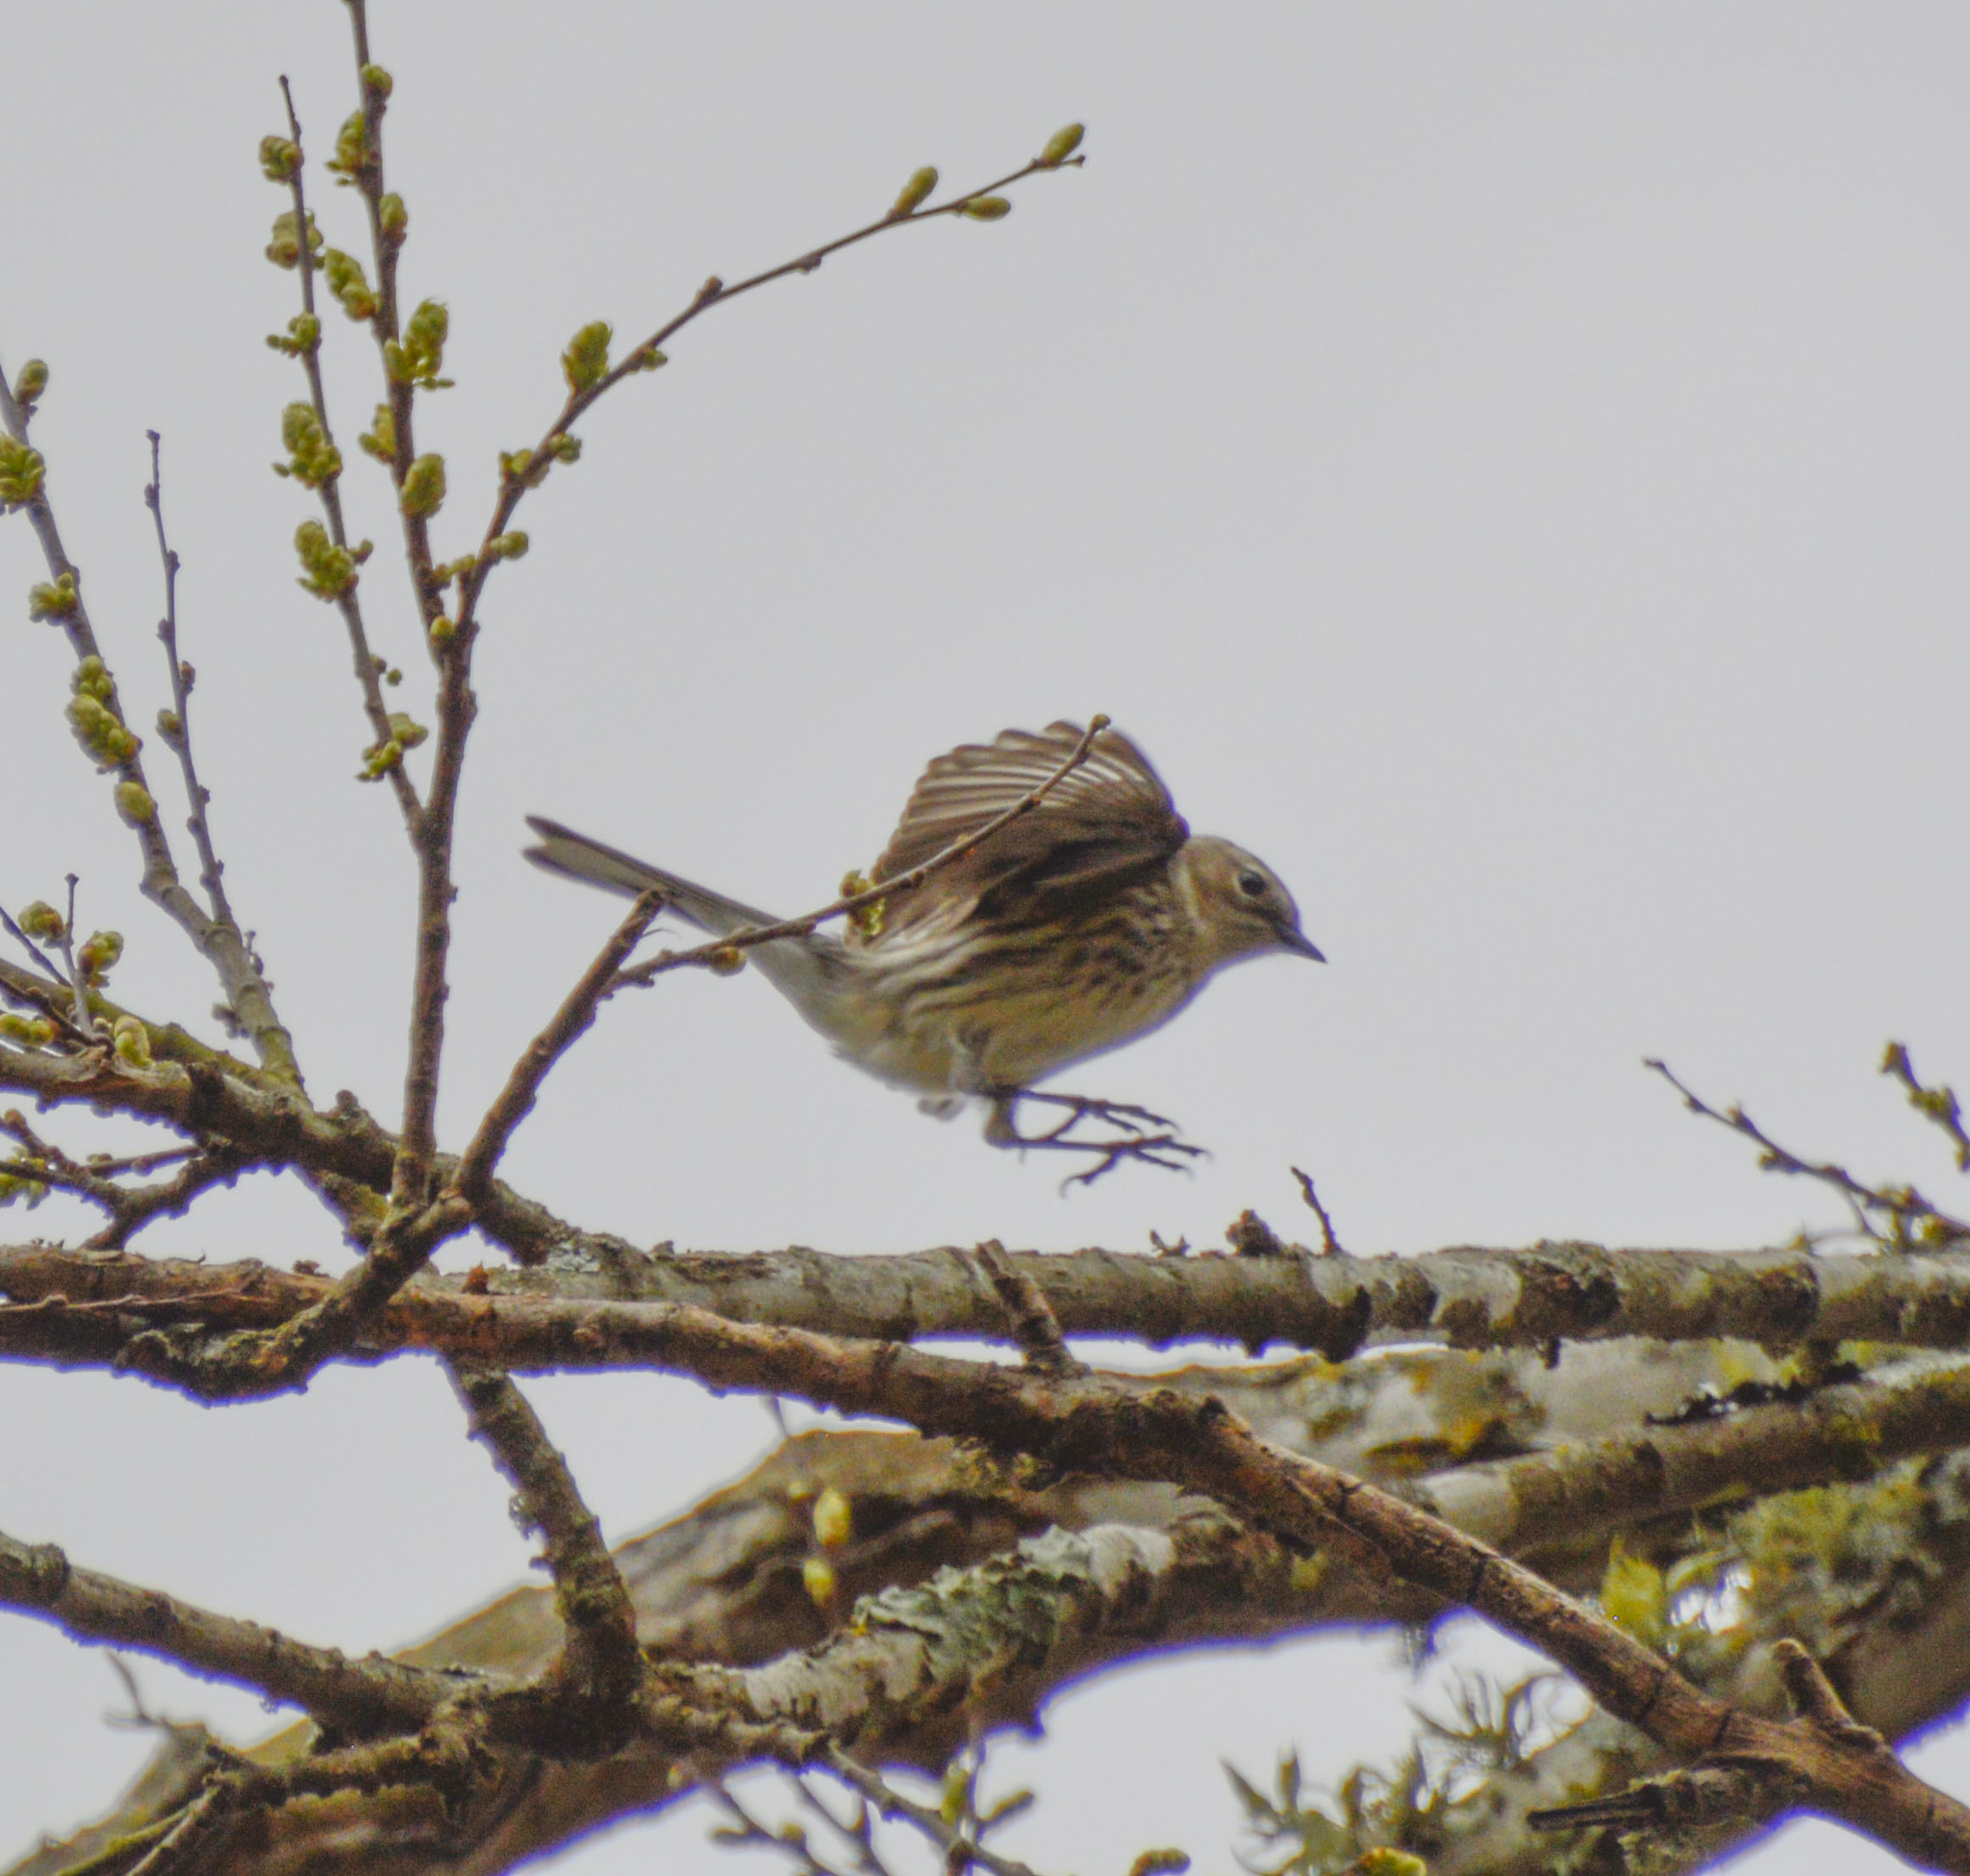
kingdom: Animalia
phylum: Chordata
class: Aves
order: Passeriformes
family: Parulidae
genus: Setophaga
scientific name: Setophaga coronata
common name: Myrtle warbler
